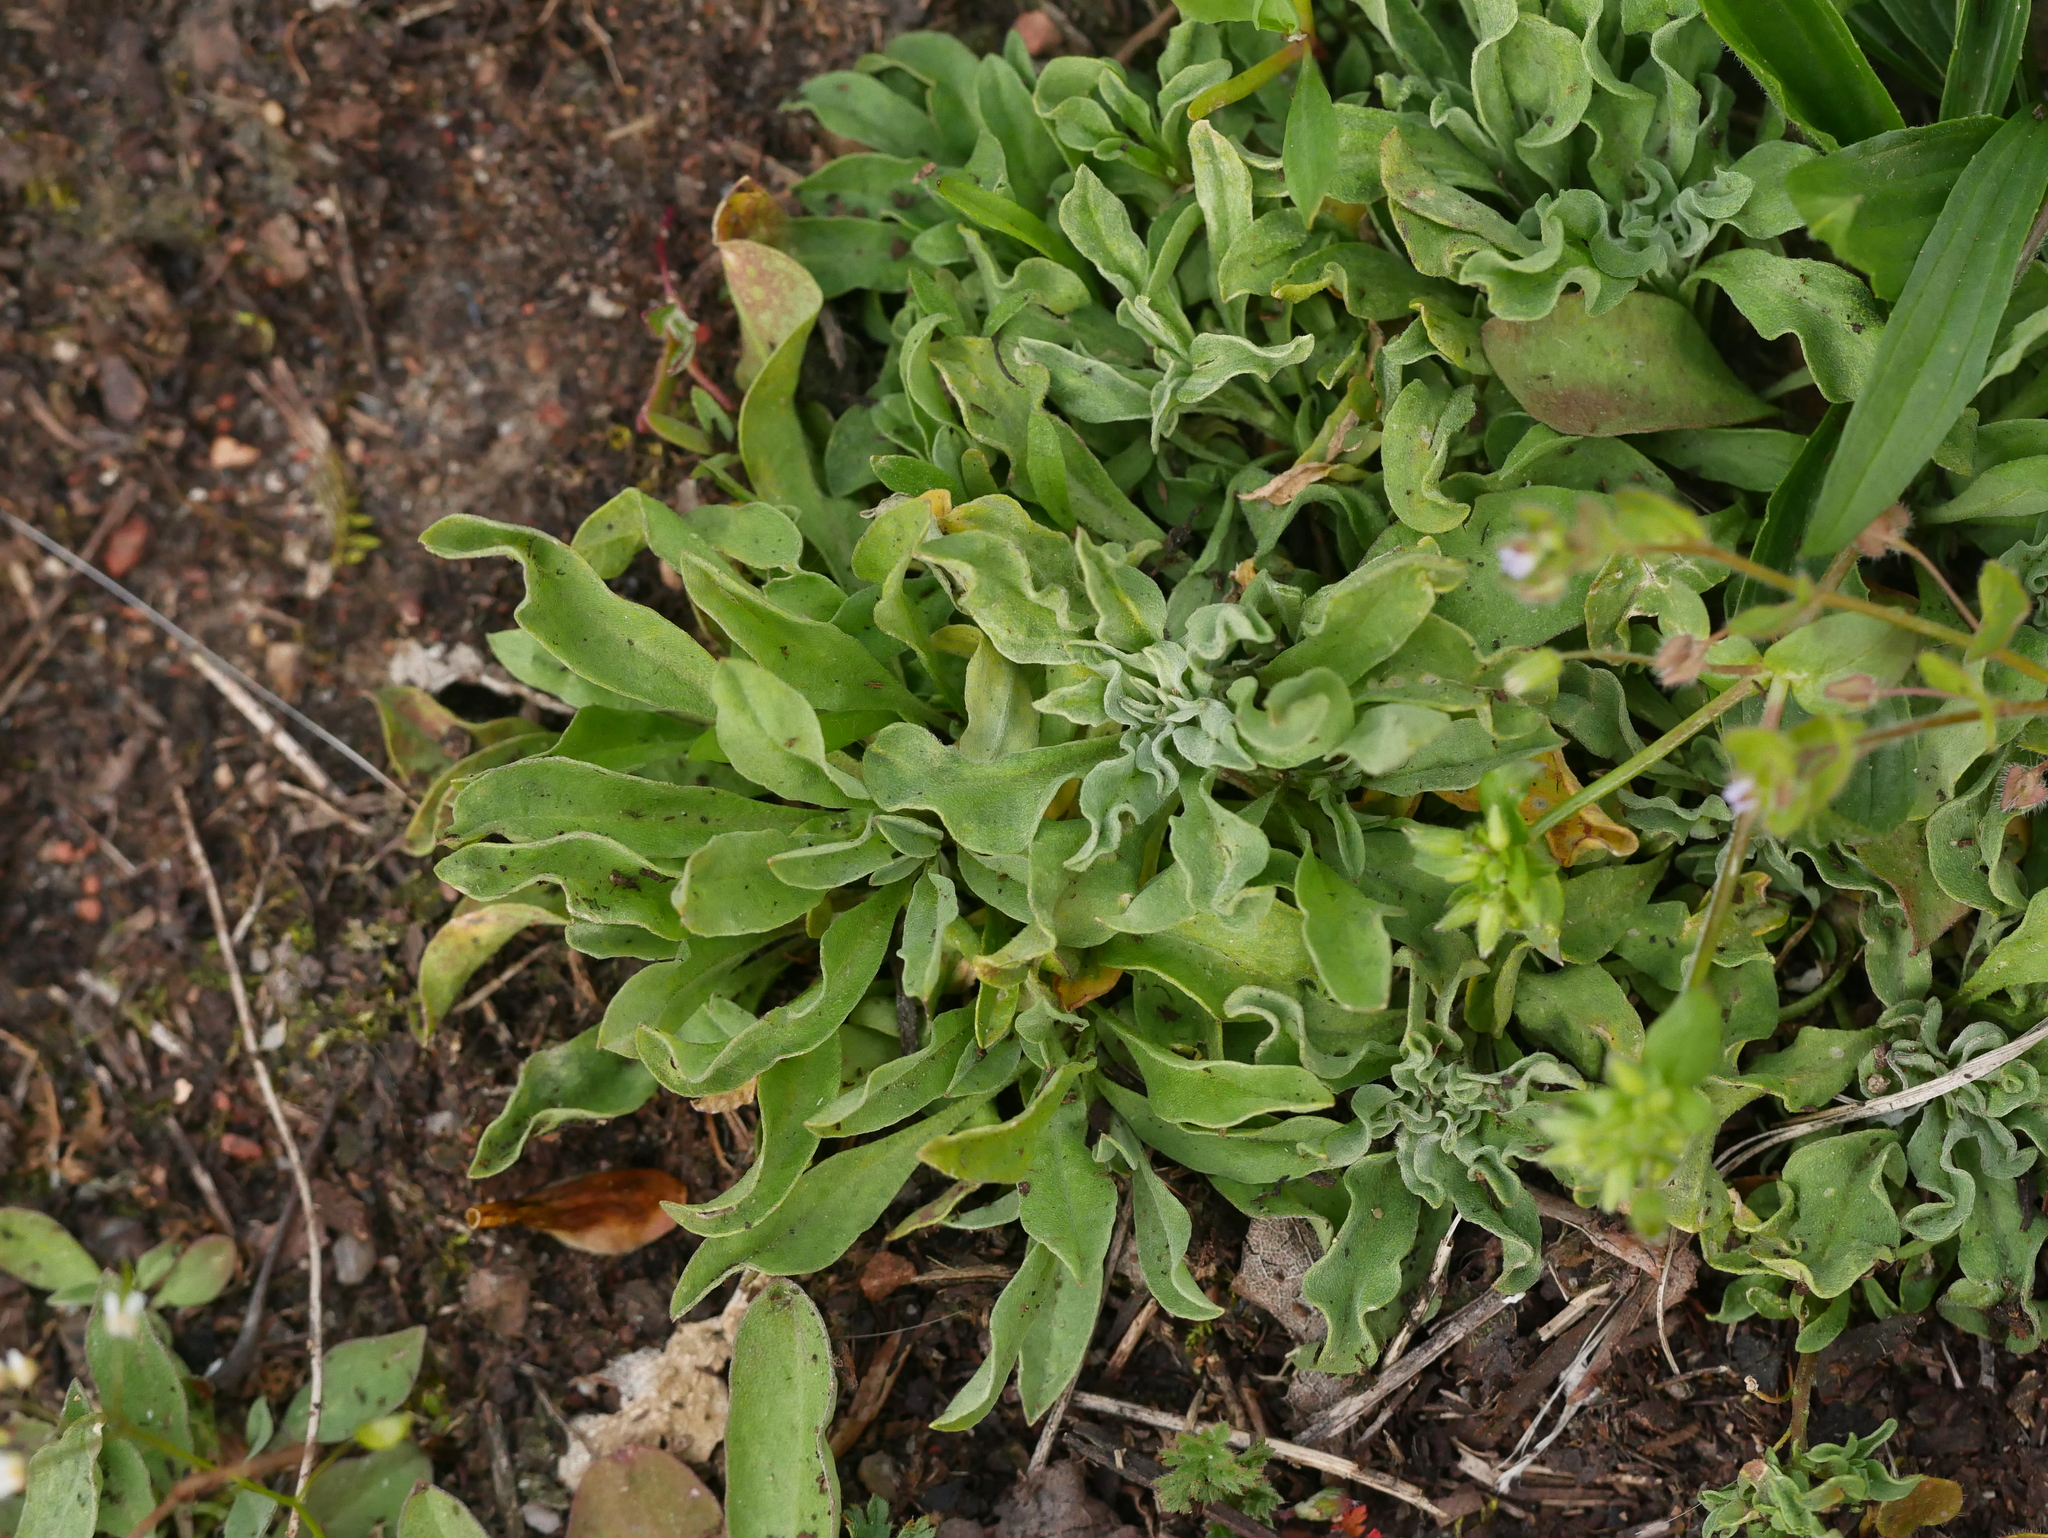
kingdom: Plantae
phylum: Tracheophyta
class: Magnoliopsida
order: Brassicales
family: Brassicaceae
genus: Berteroa
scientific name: Berteroa incana
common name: Hoary alison
